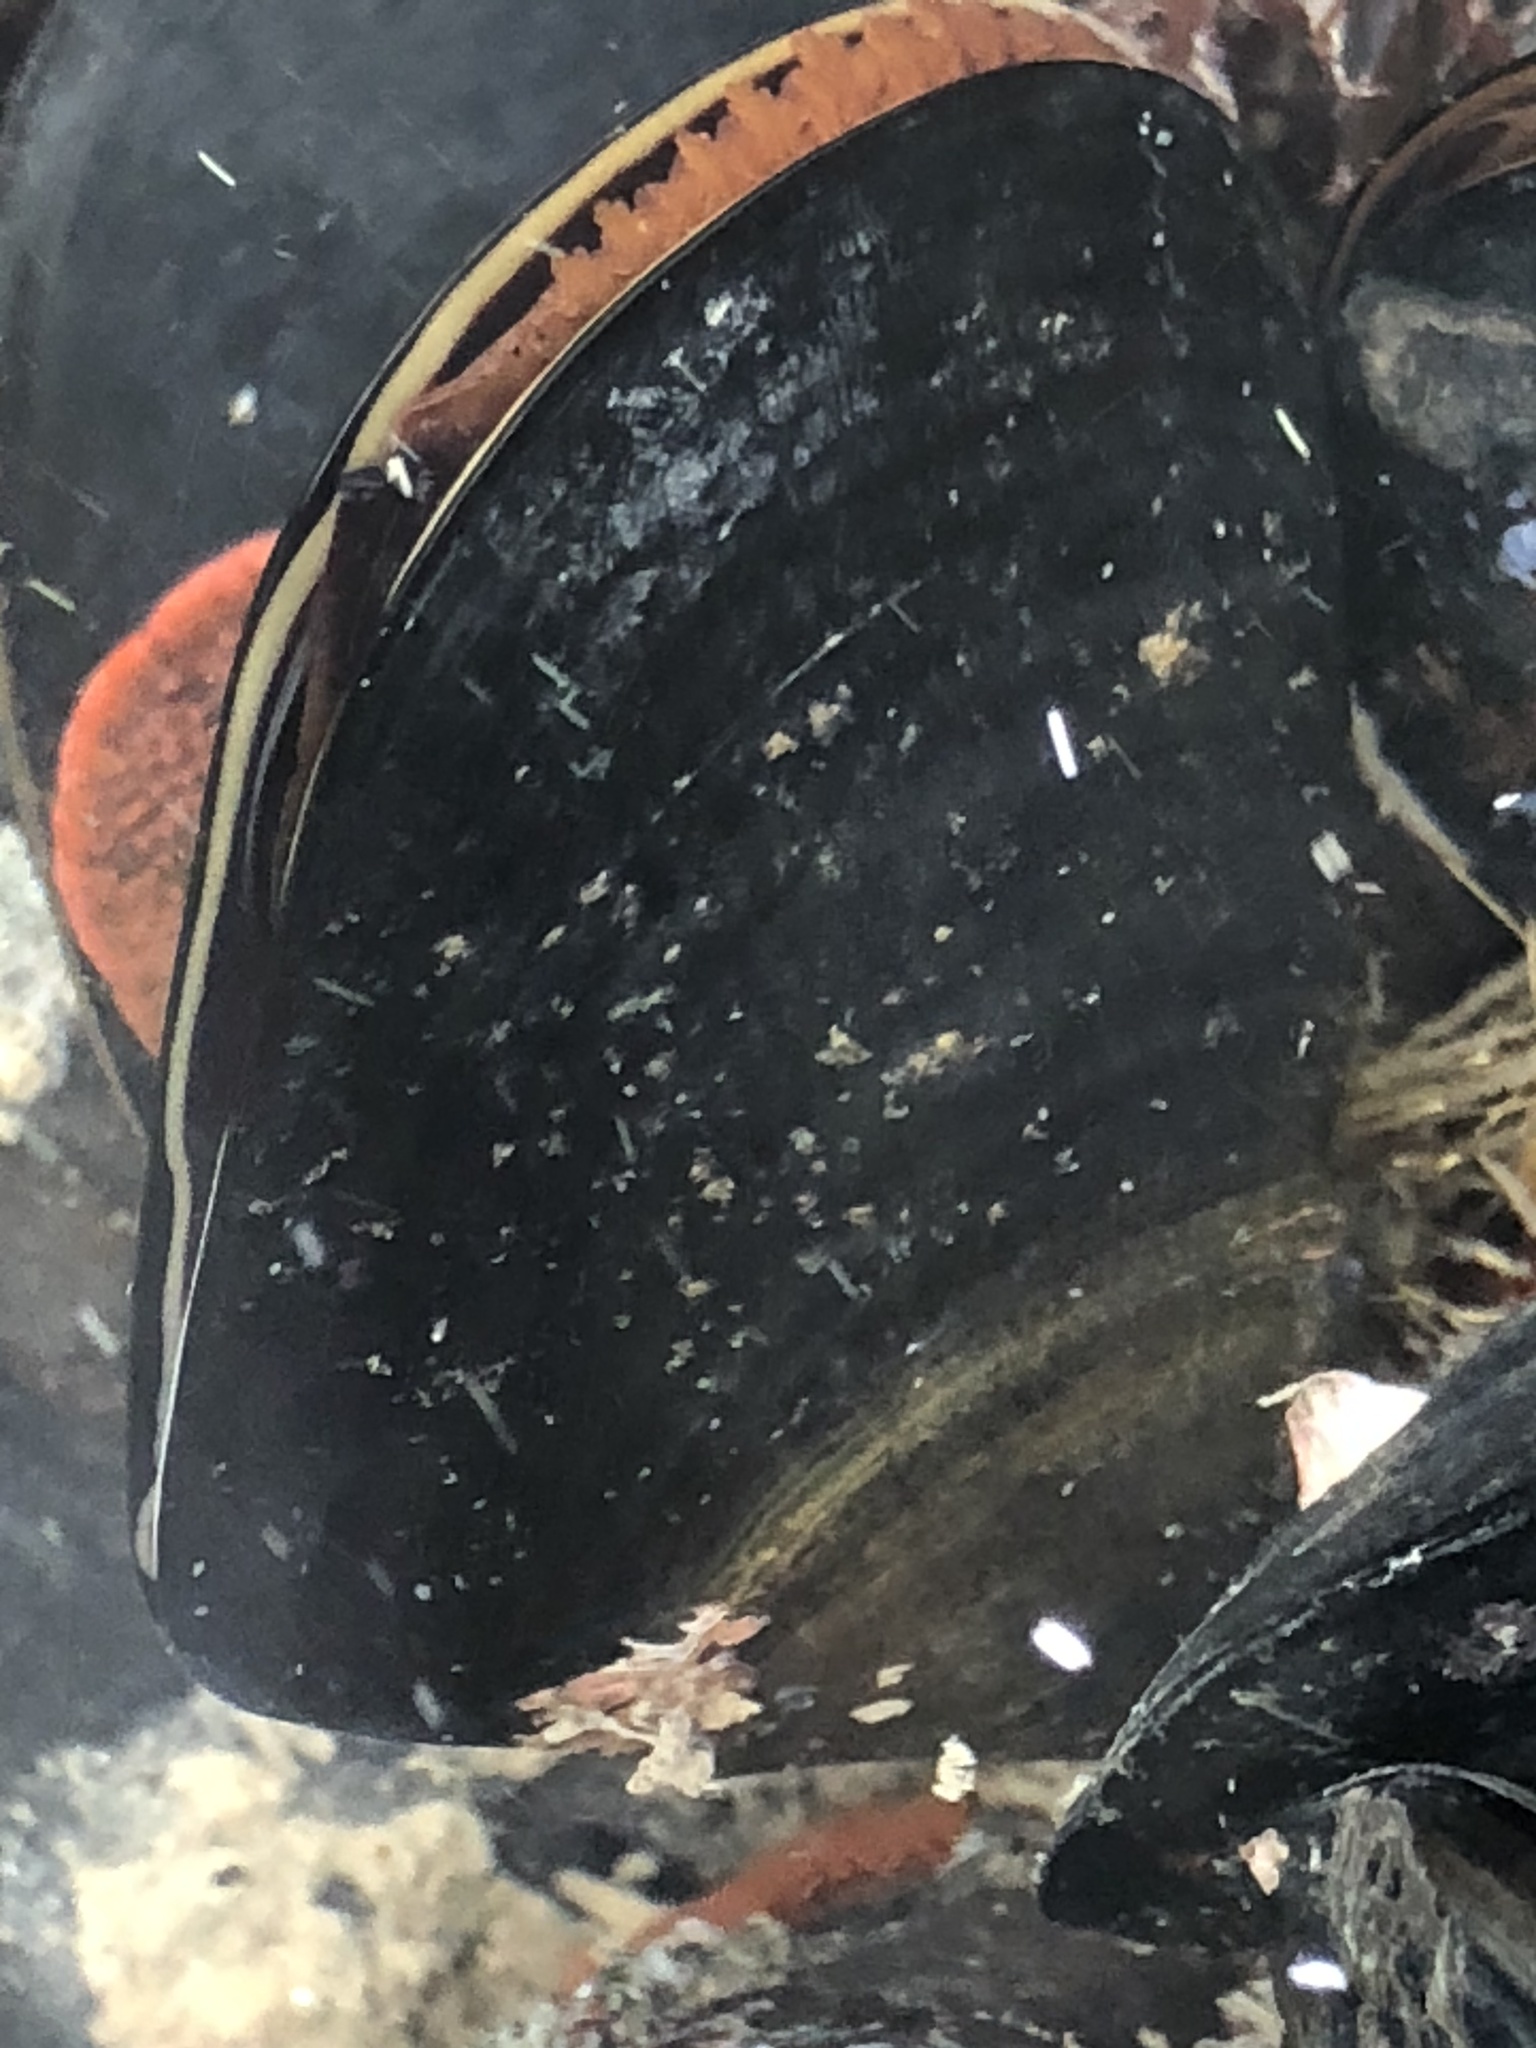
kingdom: Animalia
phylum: Mollusca
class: Bivalvia
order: Mytilida
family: Mytilidae
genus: Mytilus
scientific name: Mytilus
